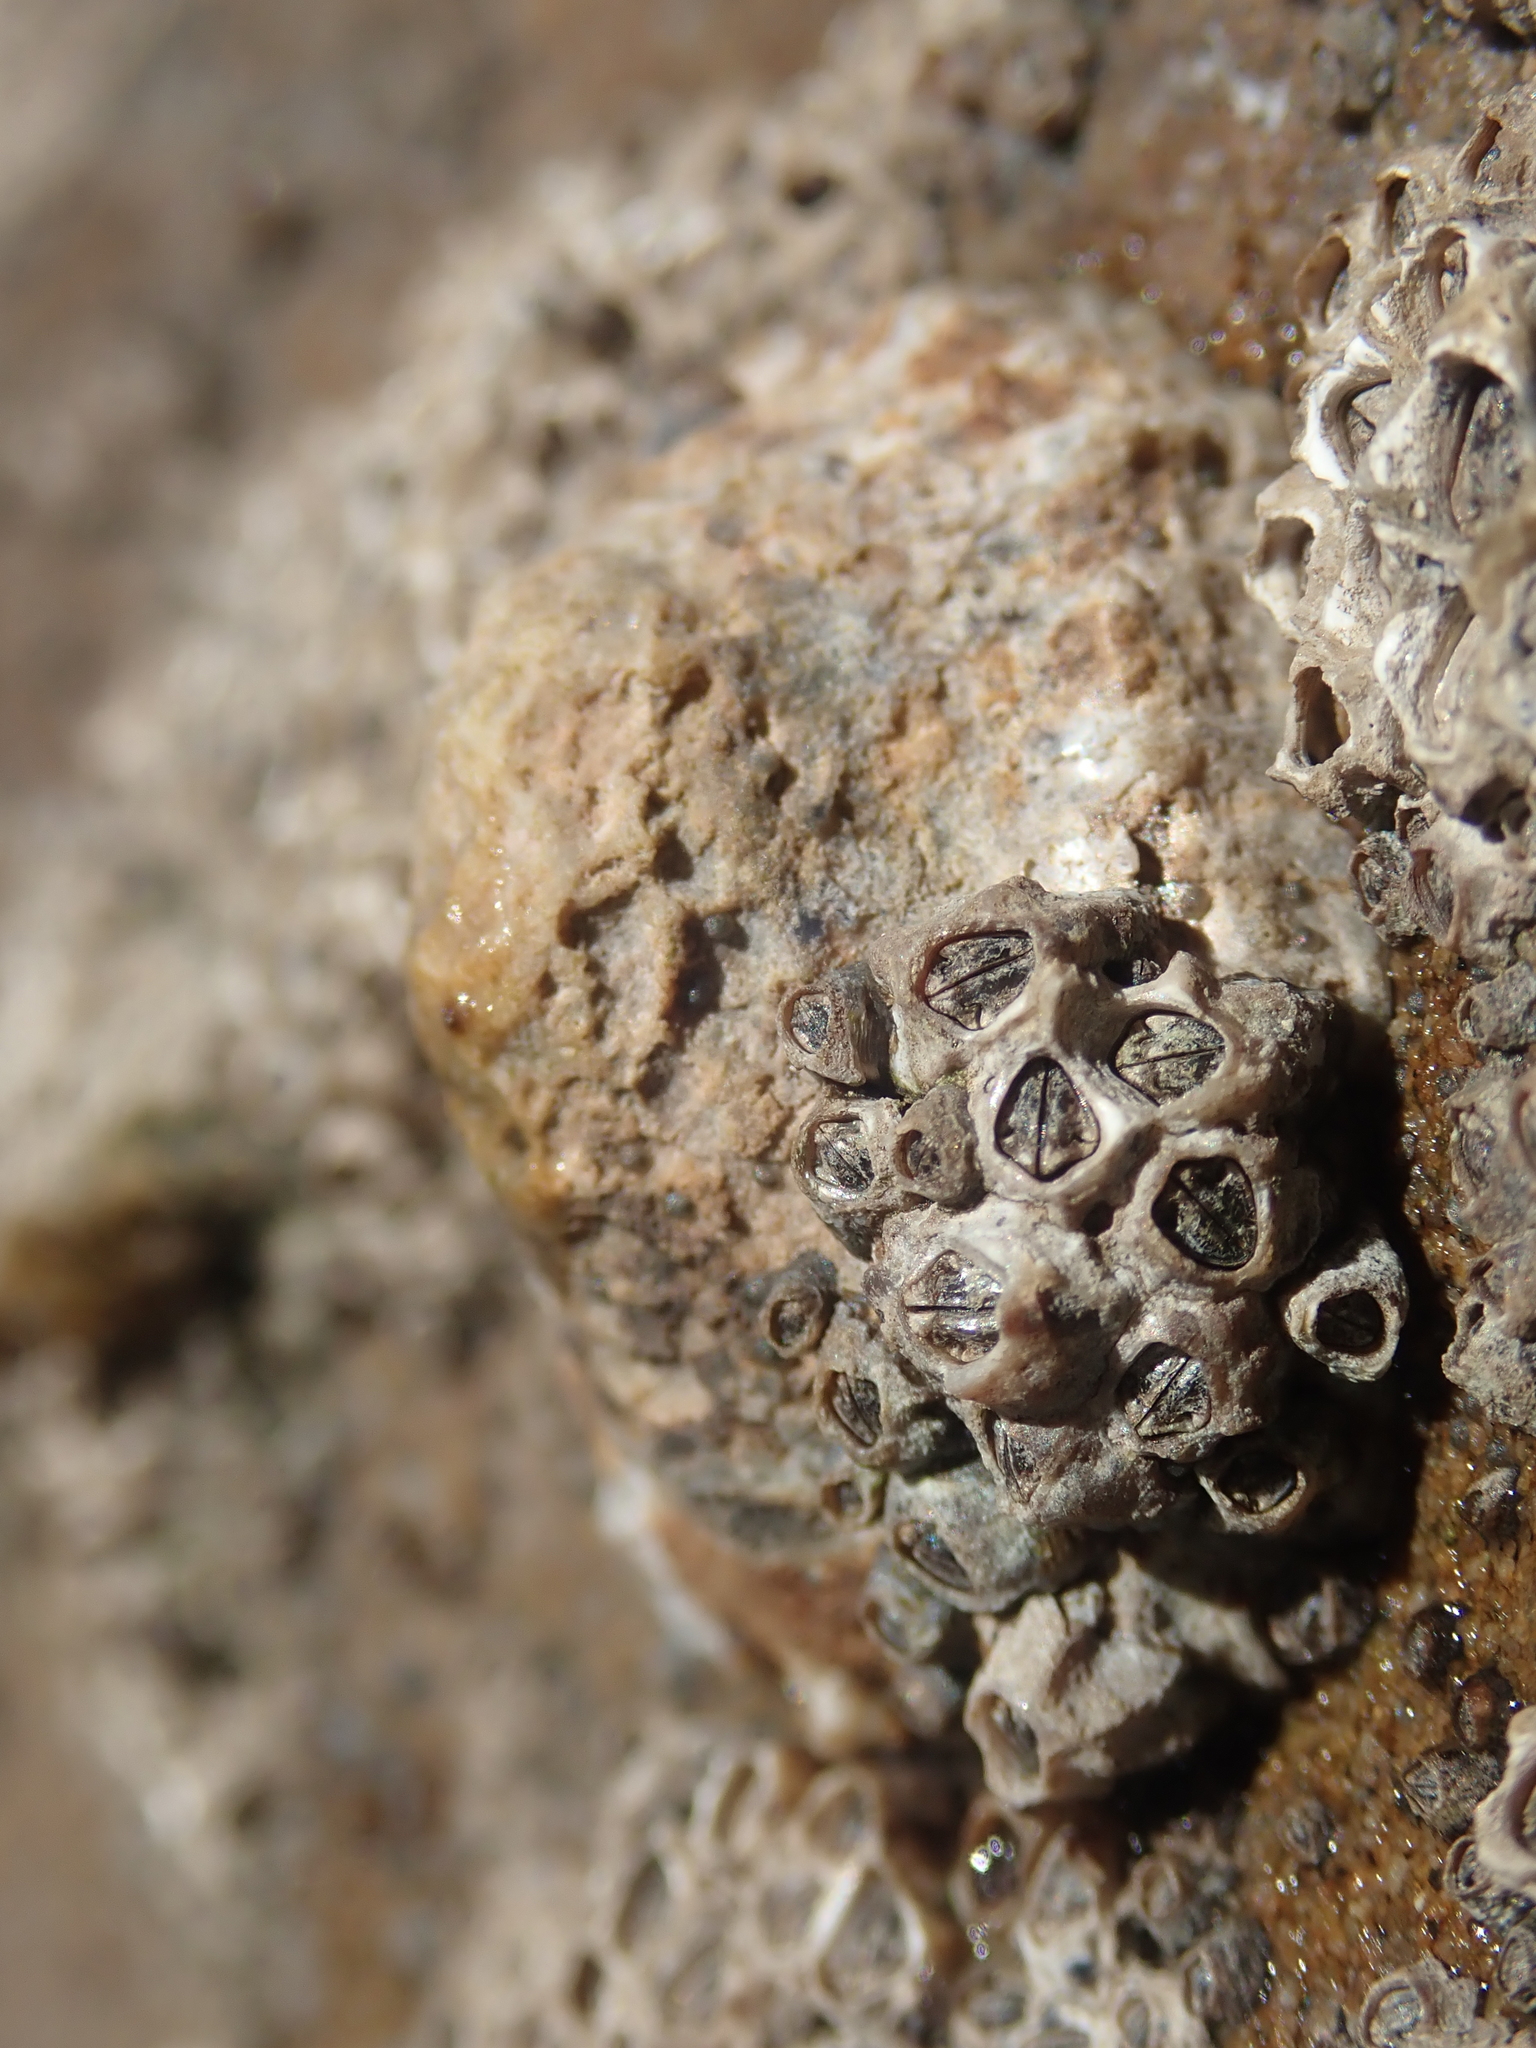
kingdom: Animalia
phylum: Arthropoda
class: Maxillopoda
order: Sessilia
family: Chthamalidae
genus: Chamaesipho
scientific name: Chamaesipho columna
